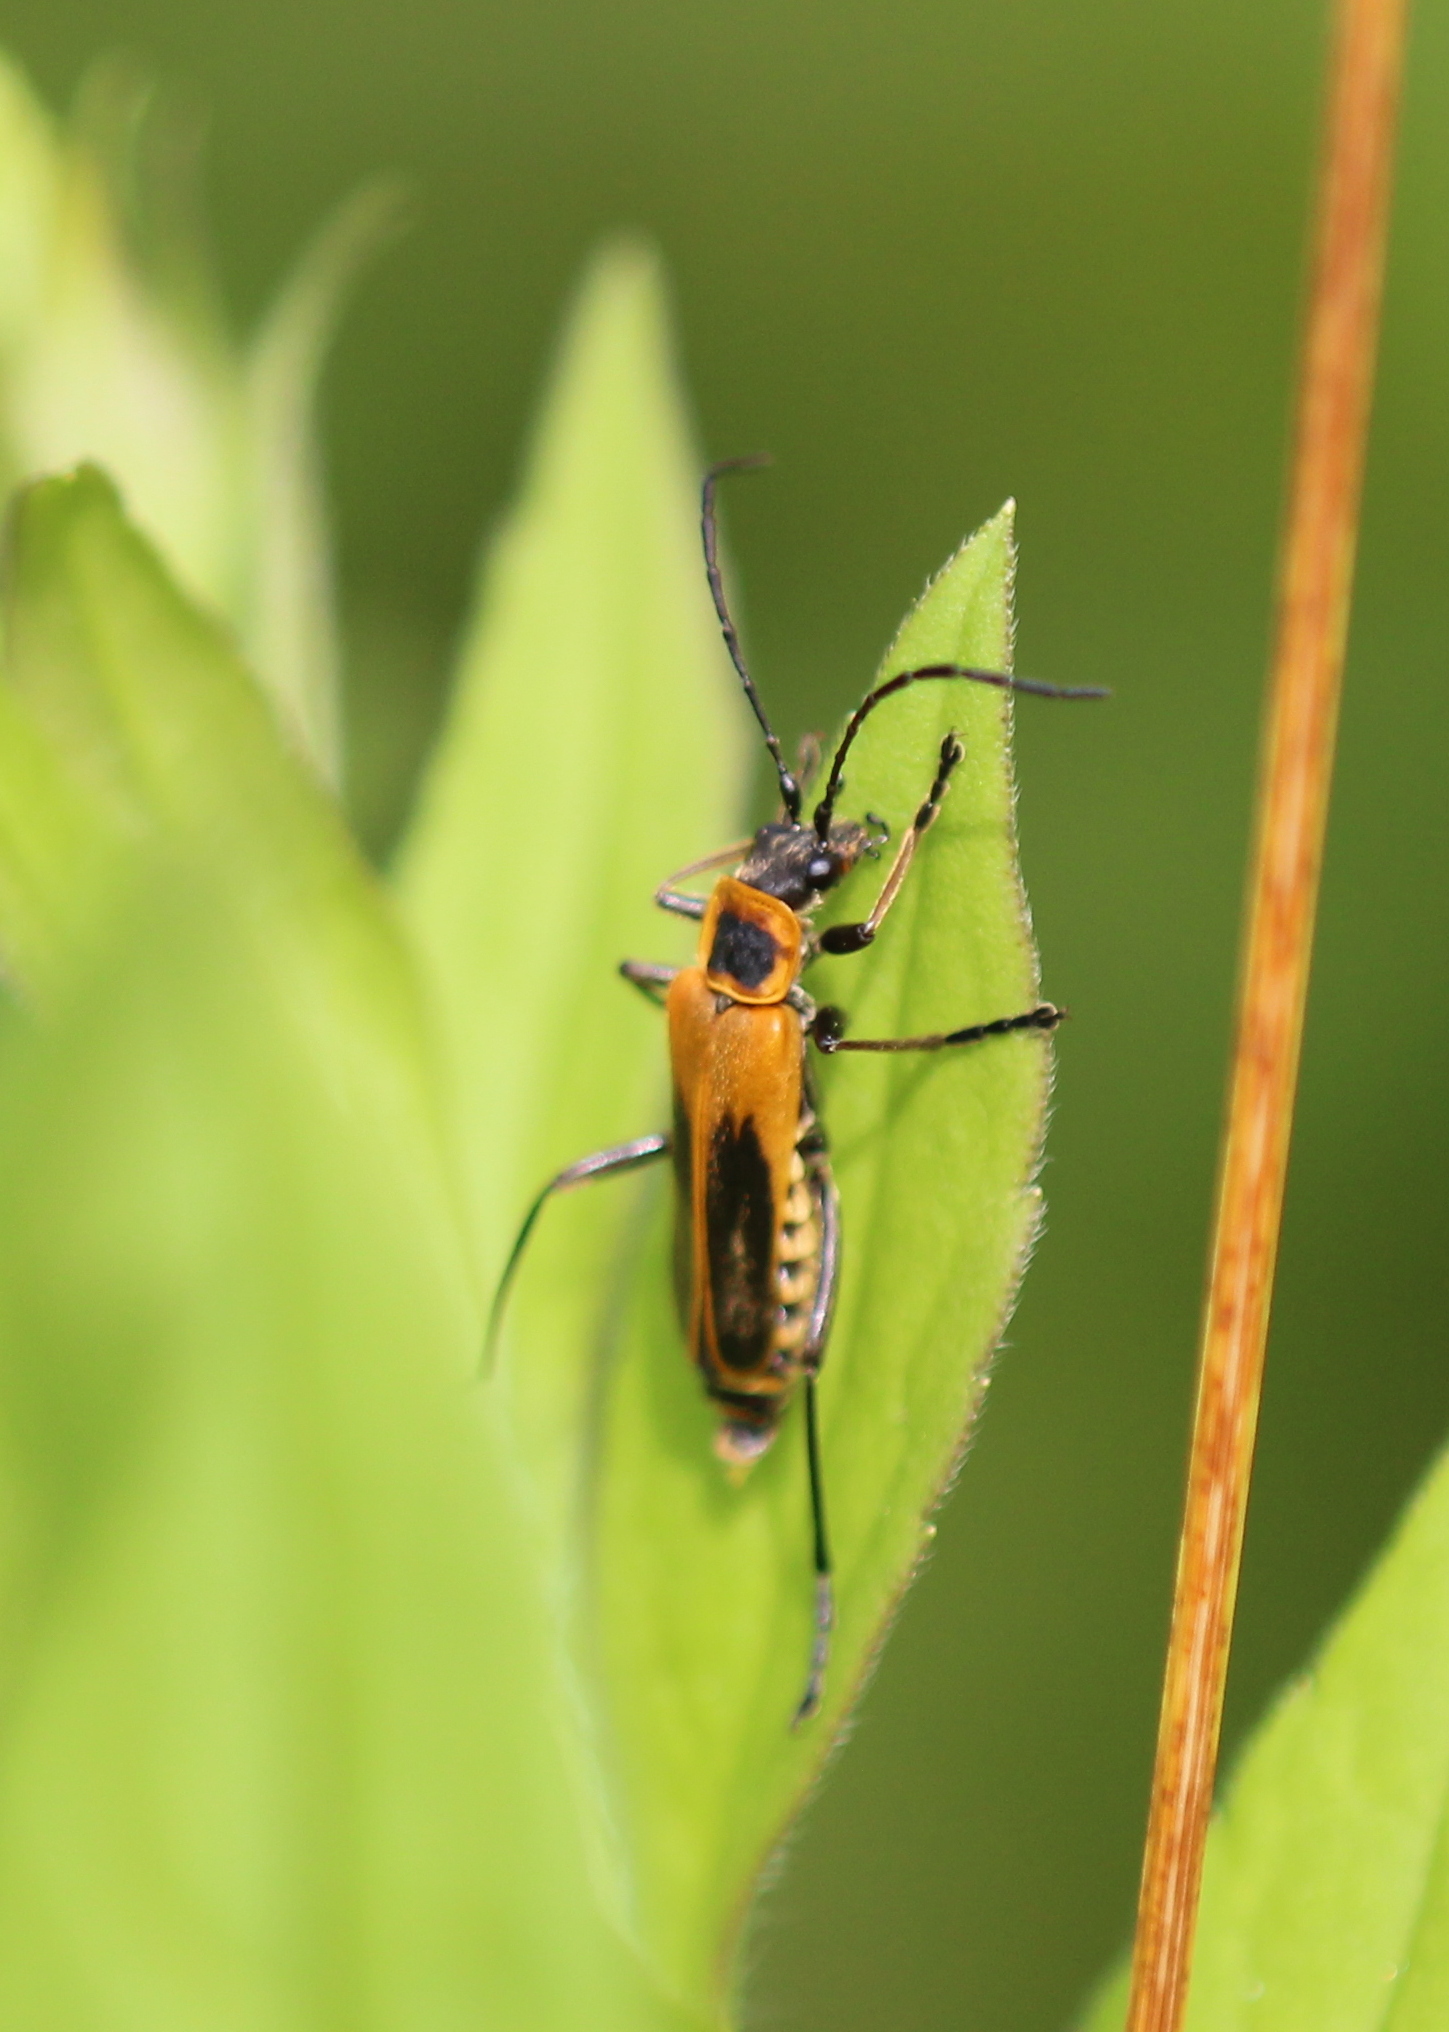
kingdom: Animalia
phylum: Arthropoda
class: Insecta
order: Coleoptera
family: Cantharidae
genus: Chauliognathus
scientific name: Chauliognathus pensylvanicus
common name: Goldenrod soldier beetle
